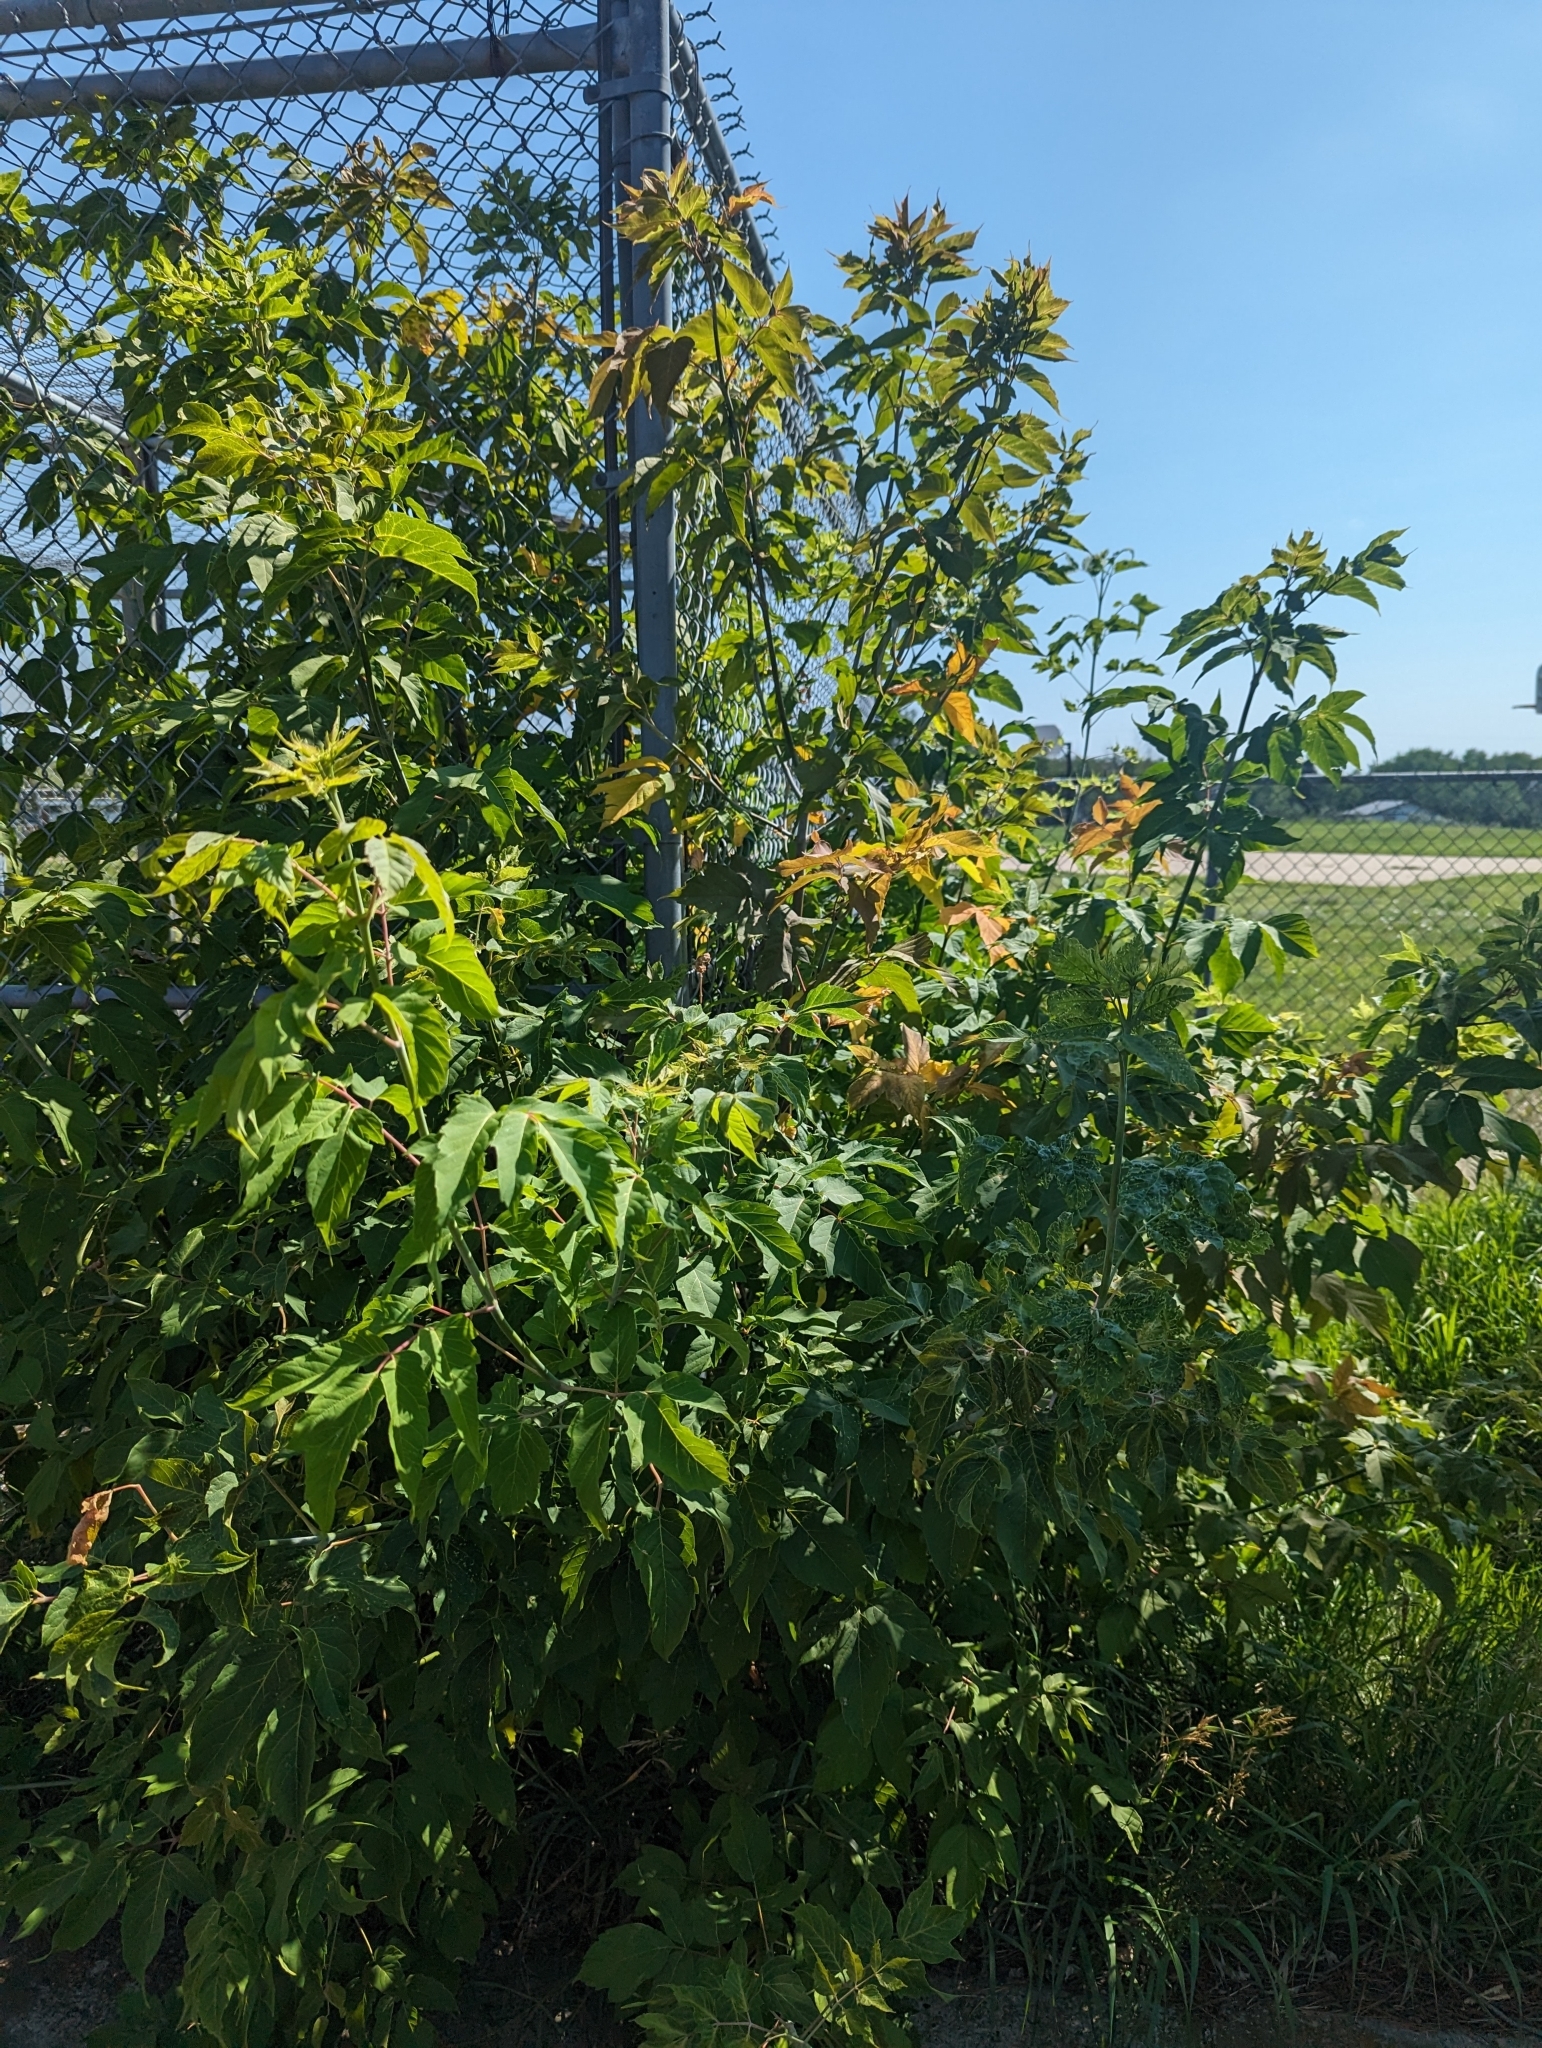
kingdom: Plantae
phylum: Tracheophyta
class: Magnoliopsida
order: Sapindales
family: Sapindaceae
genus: Acer
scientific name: Acer negundo
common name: Ashleaf maple
